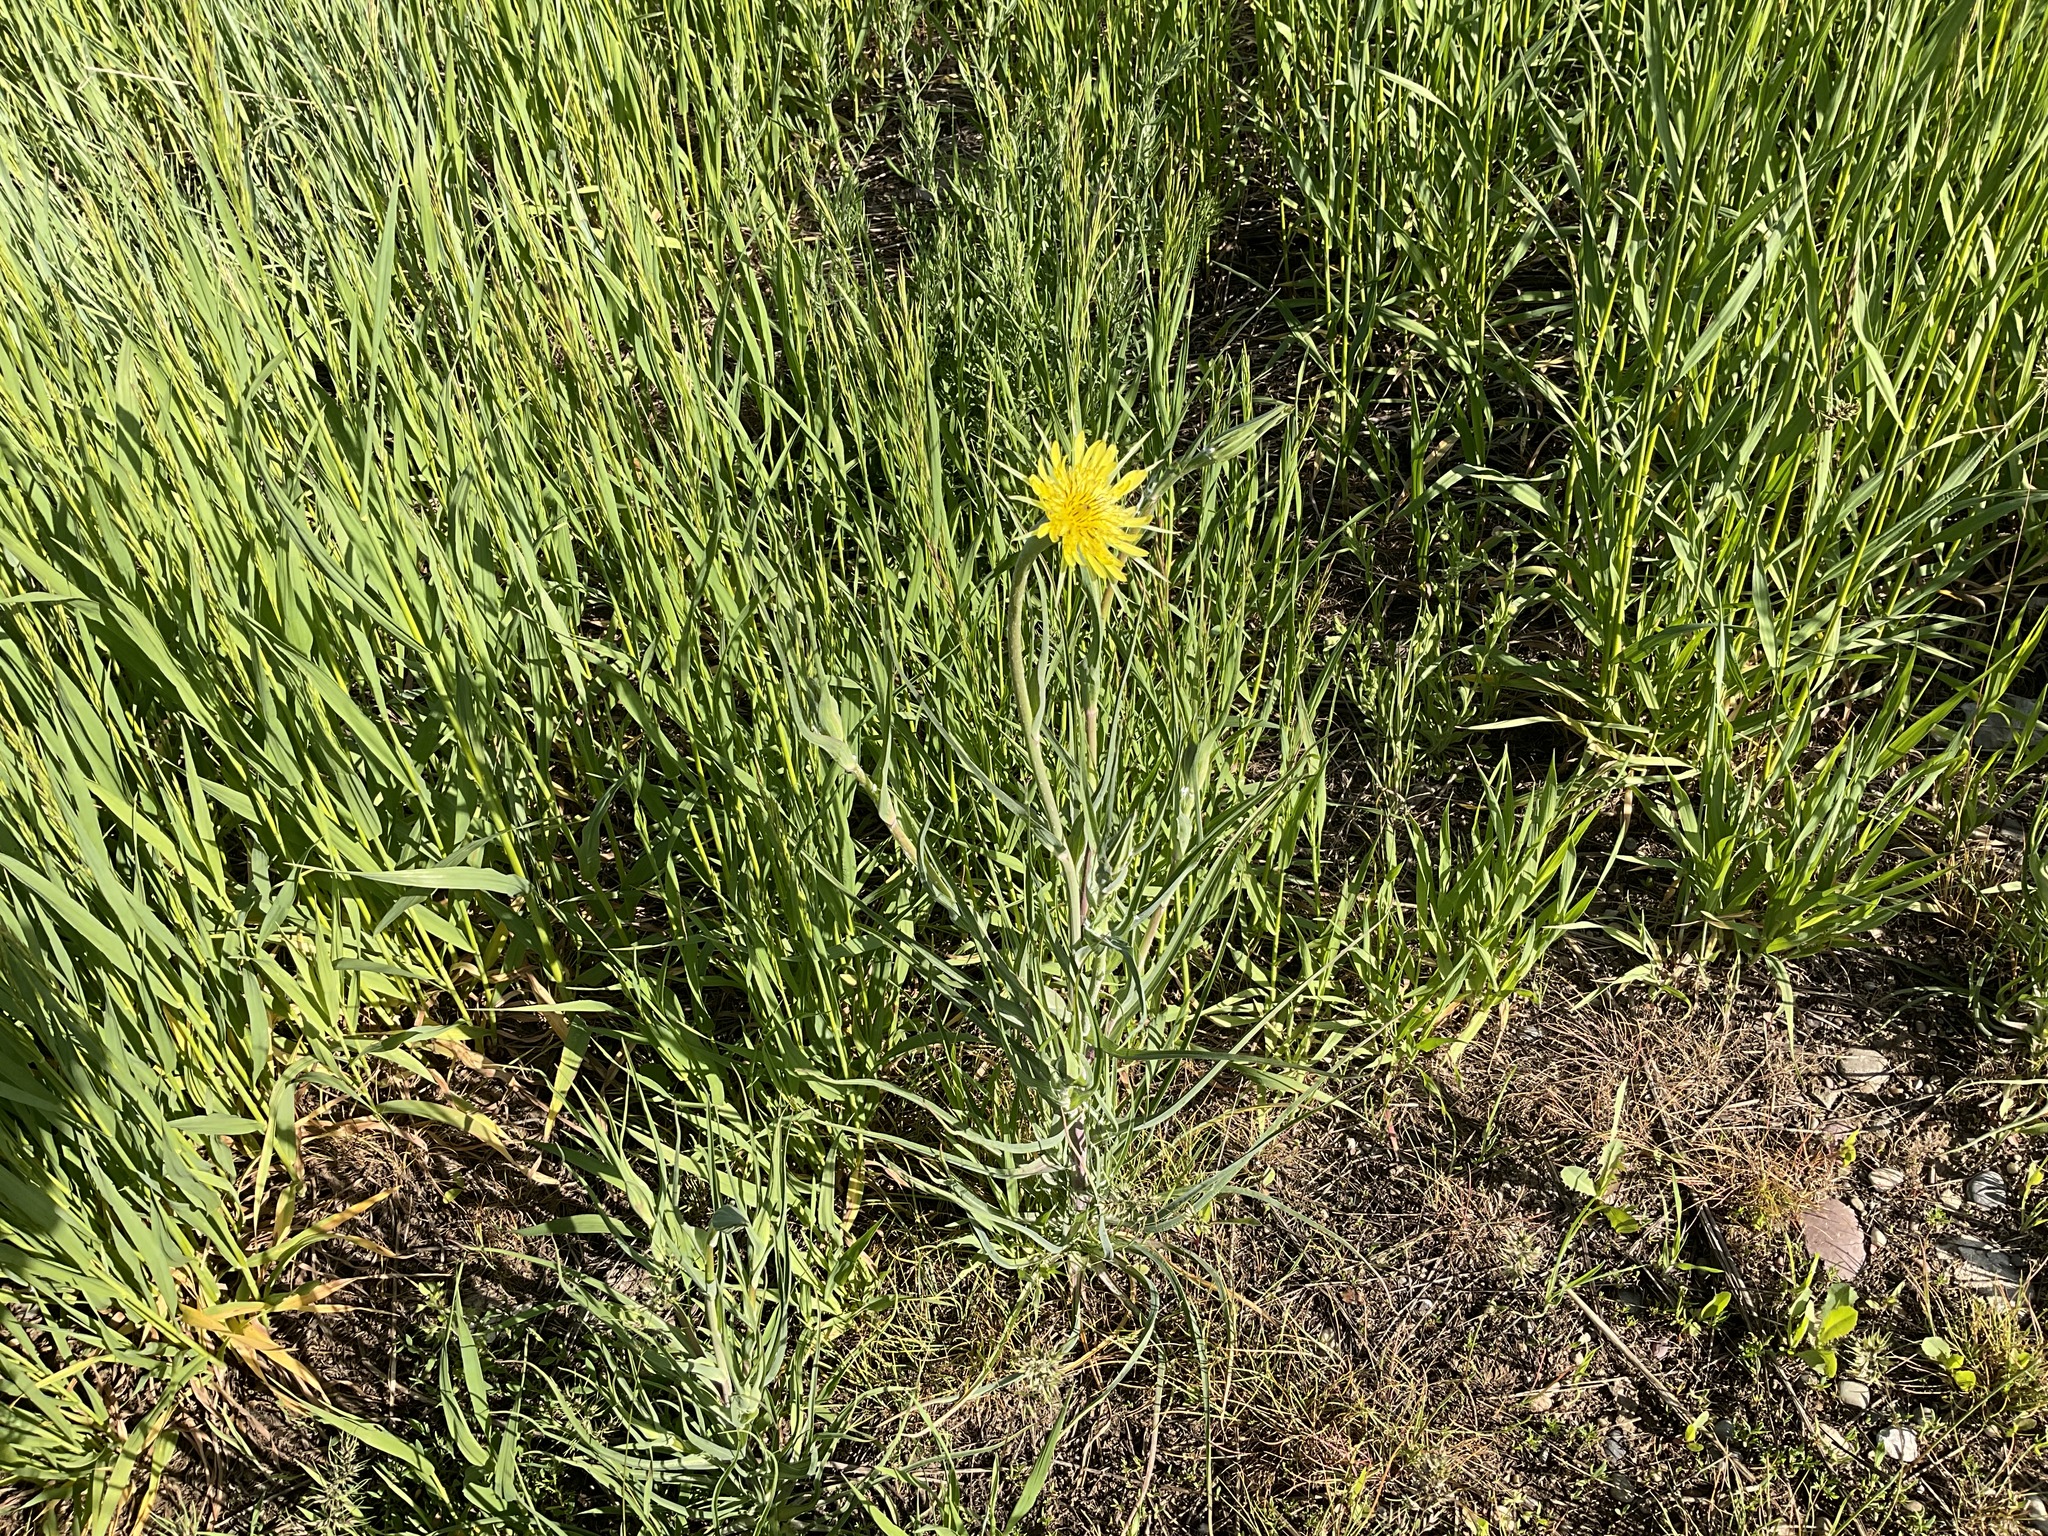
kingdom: Plantae
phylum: Tracheophyta
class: Magnoliopsida
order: Asterales
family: Asteraceae
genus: Tragopogon
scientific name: Tragopogon dubius
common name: Yellow salsify
